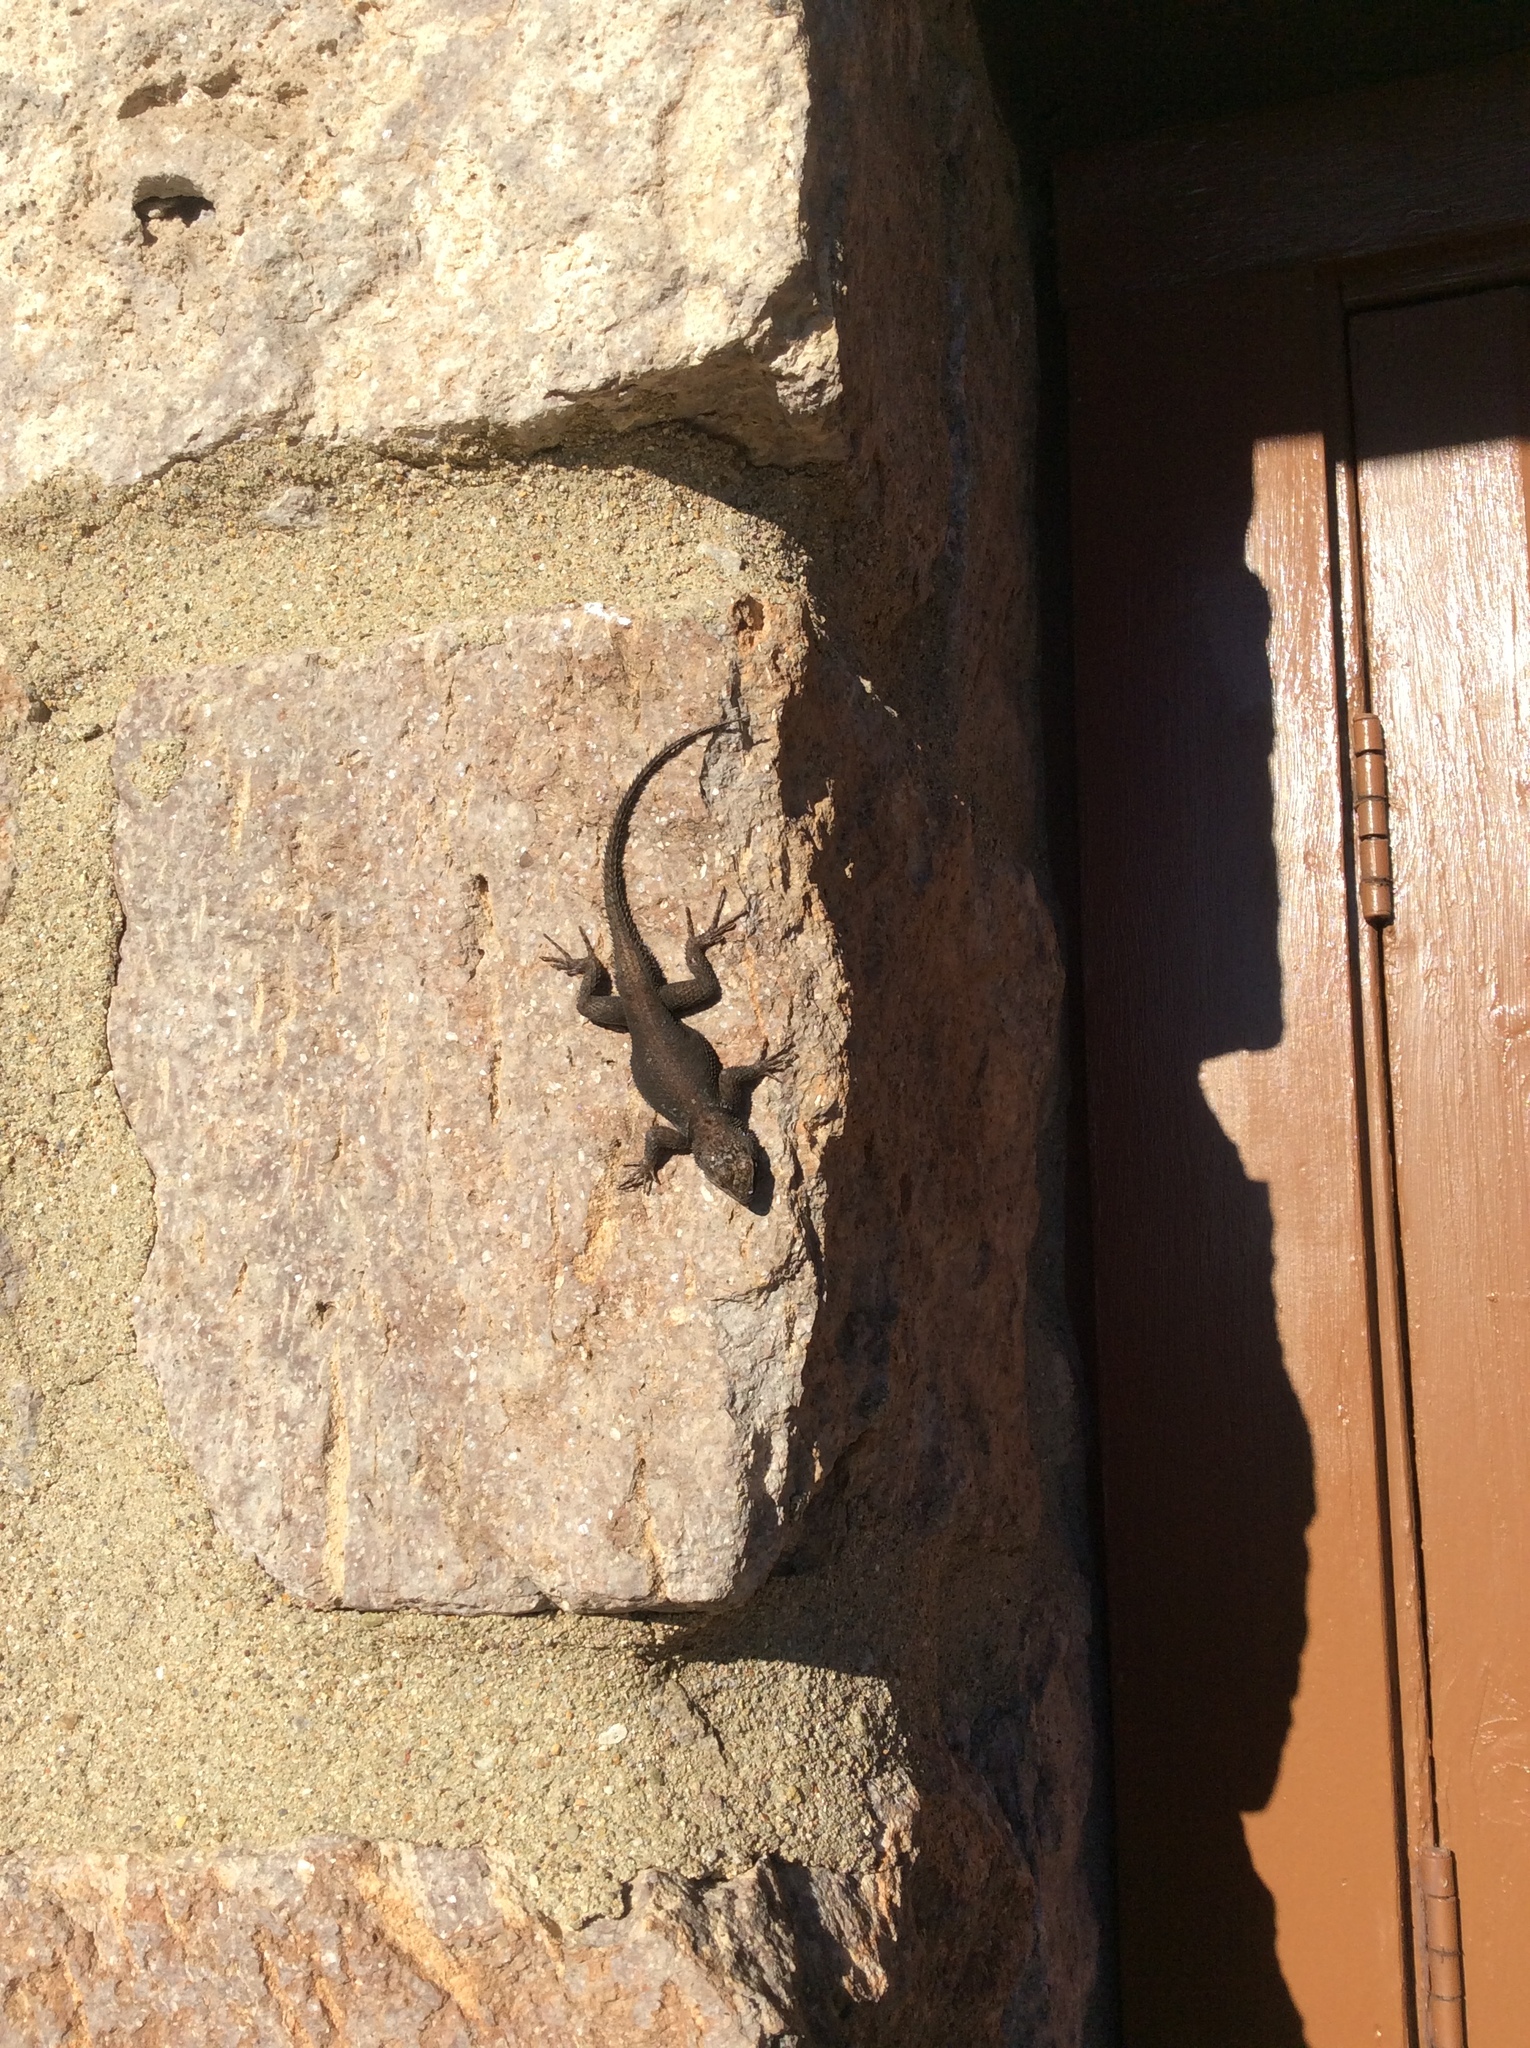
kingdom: Animalia
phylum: Chordata
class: Squamata
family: Phrynosomatidae
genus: Sceloporus
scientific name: Sceloporus jarrovii
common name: Yarrow's spiny lizard
